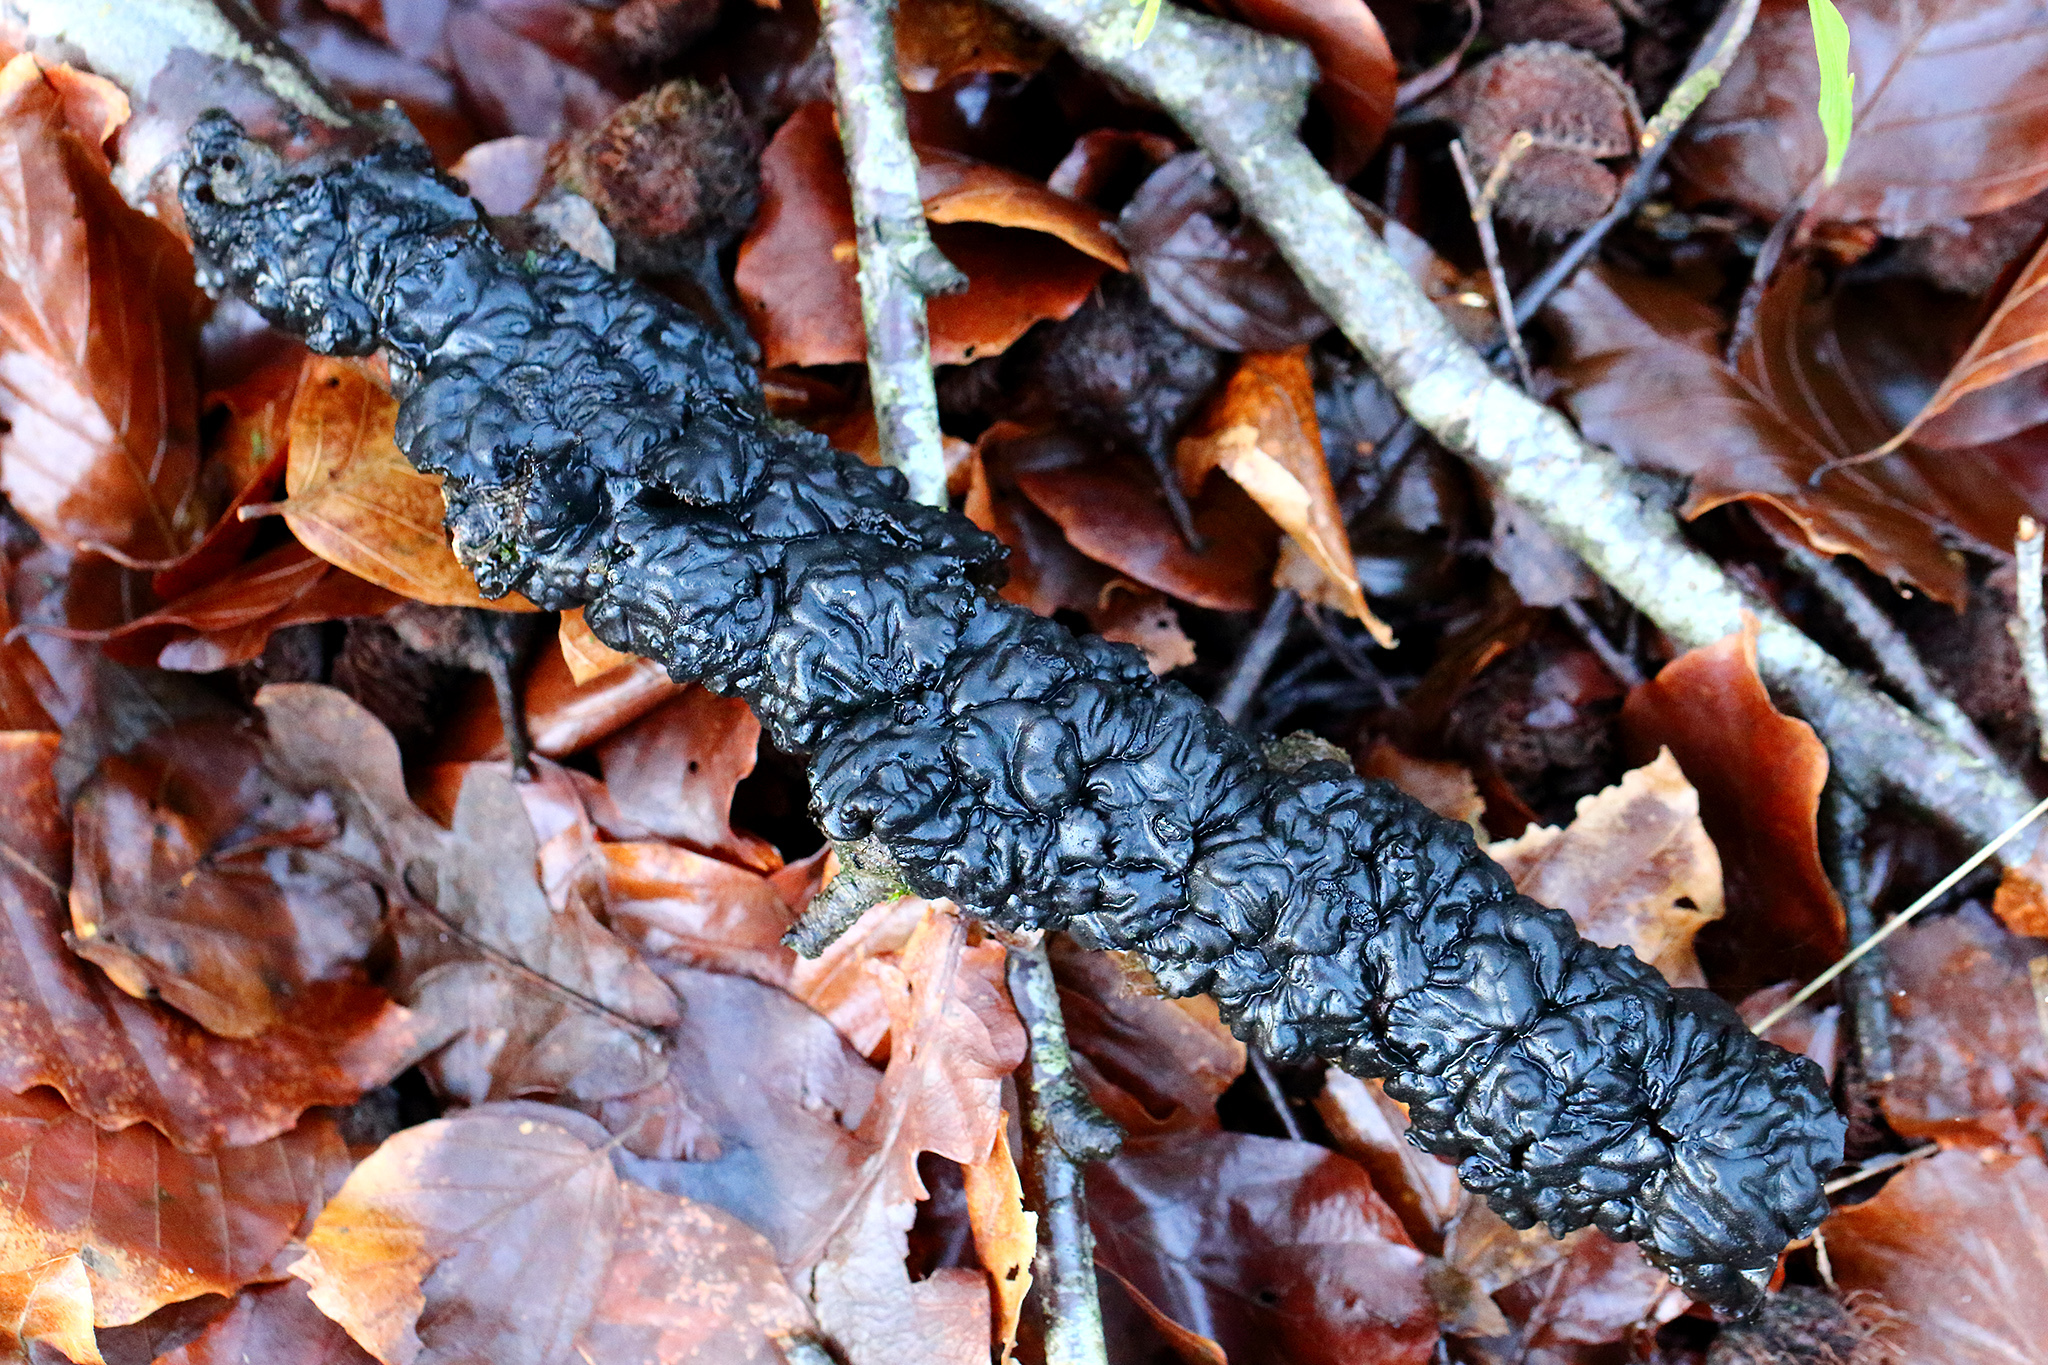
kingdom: Fungi
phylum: Basidiomycota
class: Agaricomycetes
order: Auriculariales
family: Auriculariaceae
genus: Exidia
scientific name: Exidia nigricans
